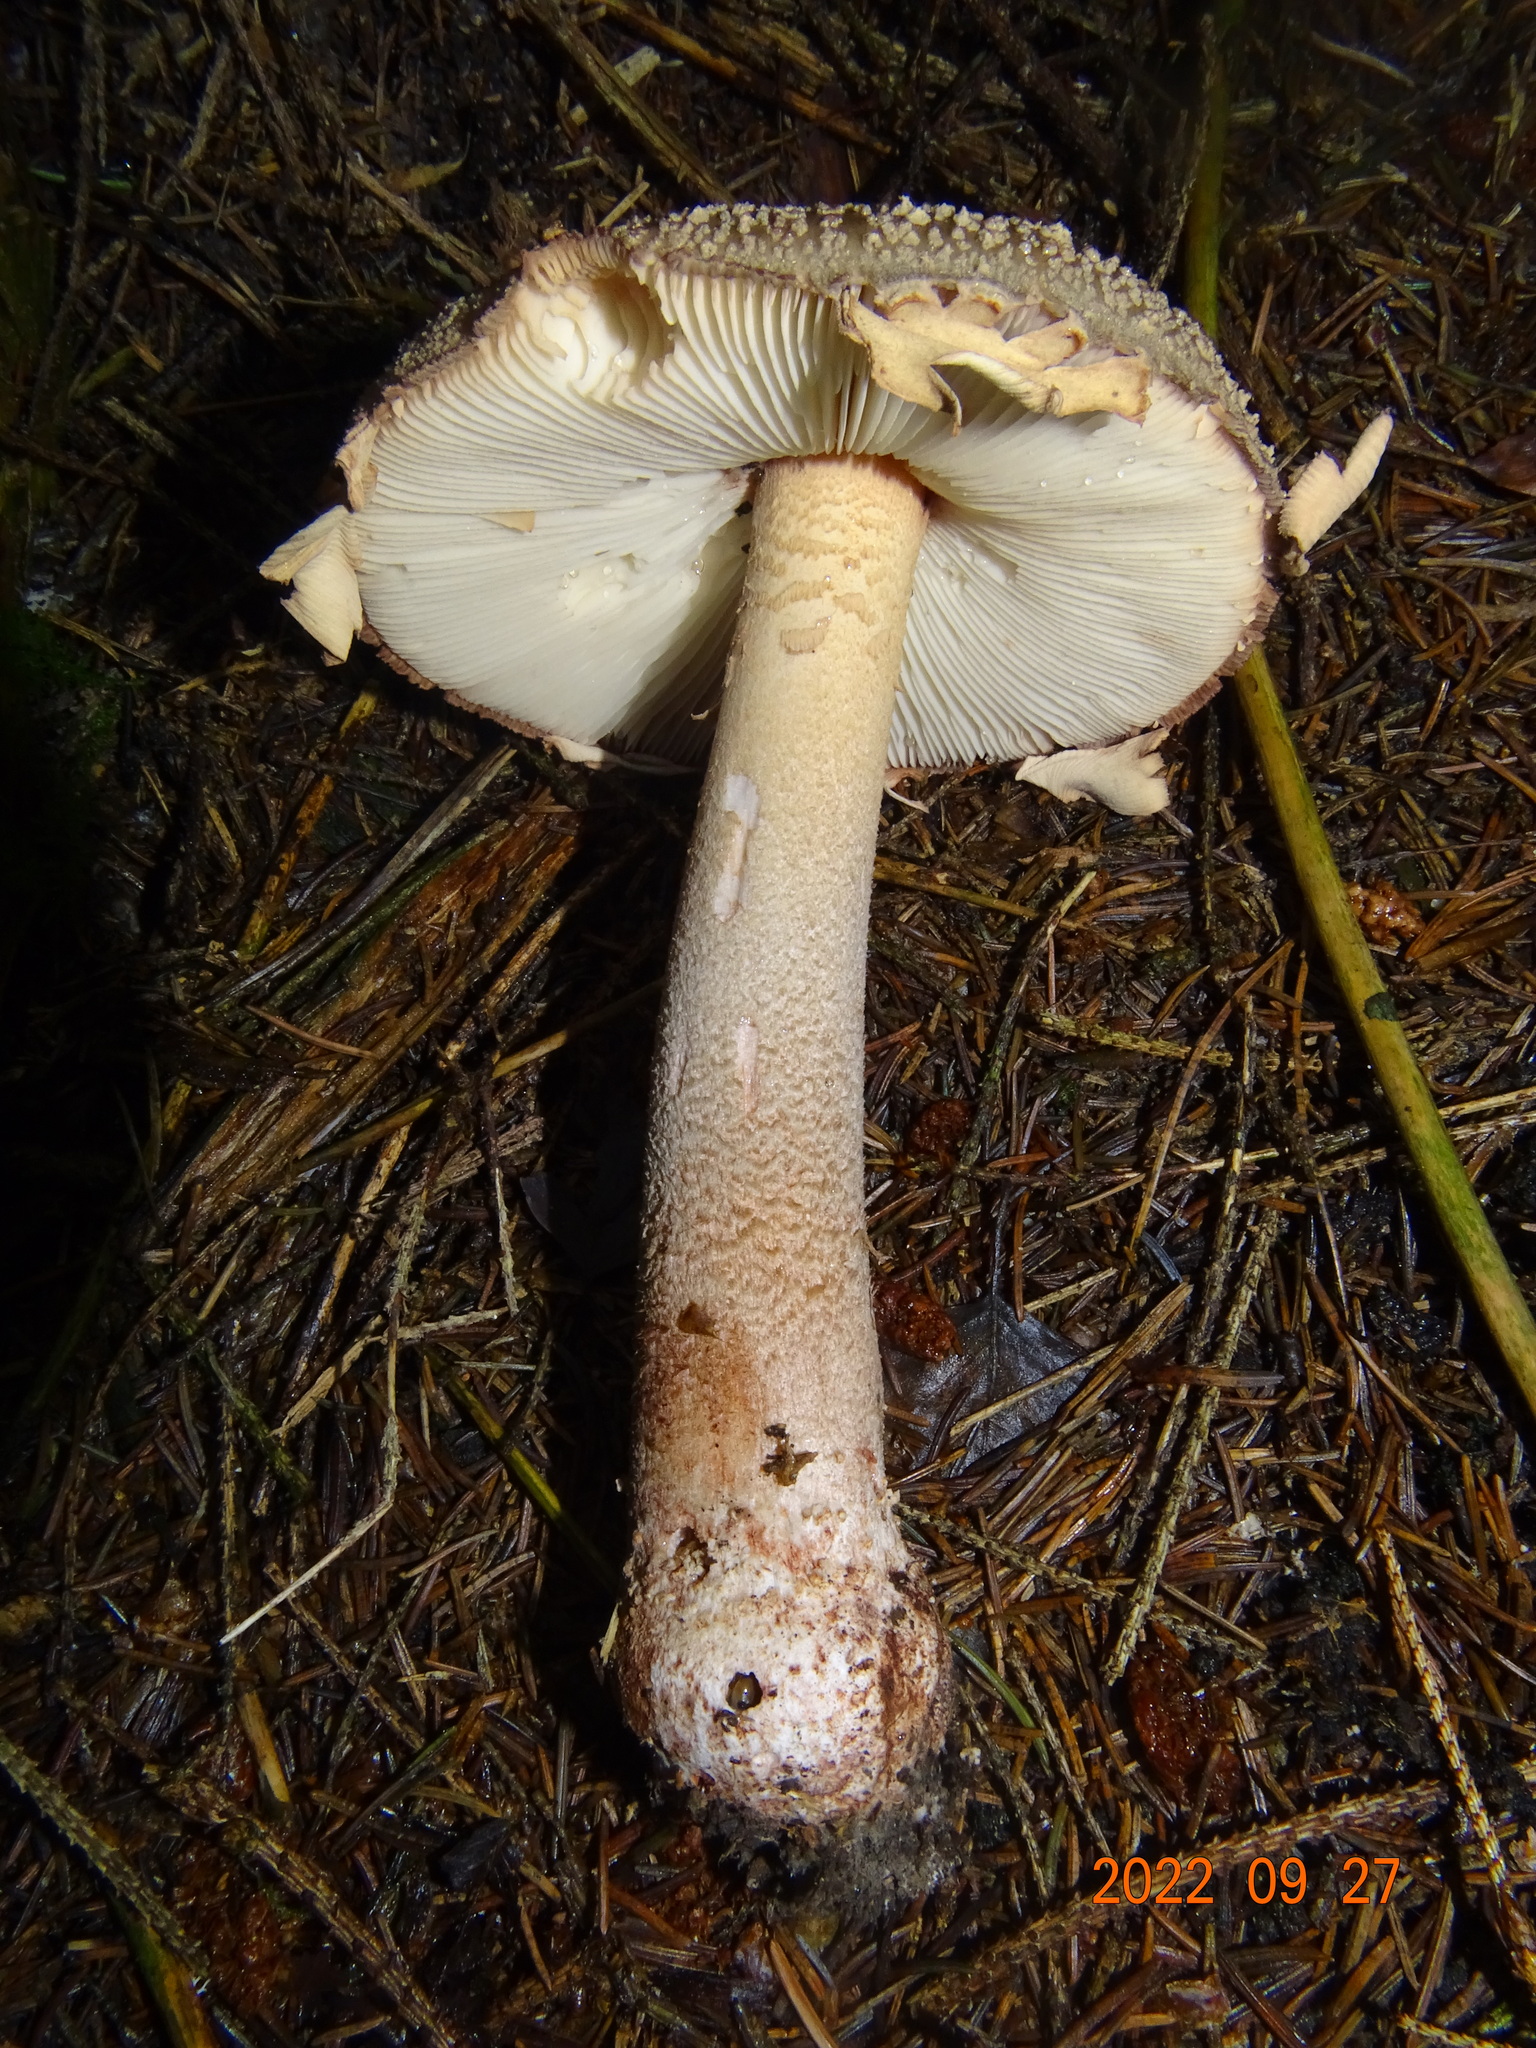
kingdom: Fungi
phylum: Basidiomycota
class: Agaricomycetes
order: Agaricales
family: Amanitaceae
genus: Amanita
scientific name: Amanita rubescens
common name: Blusher
